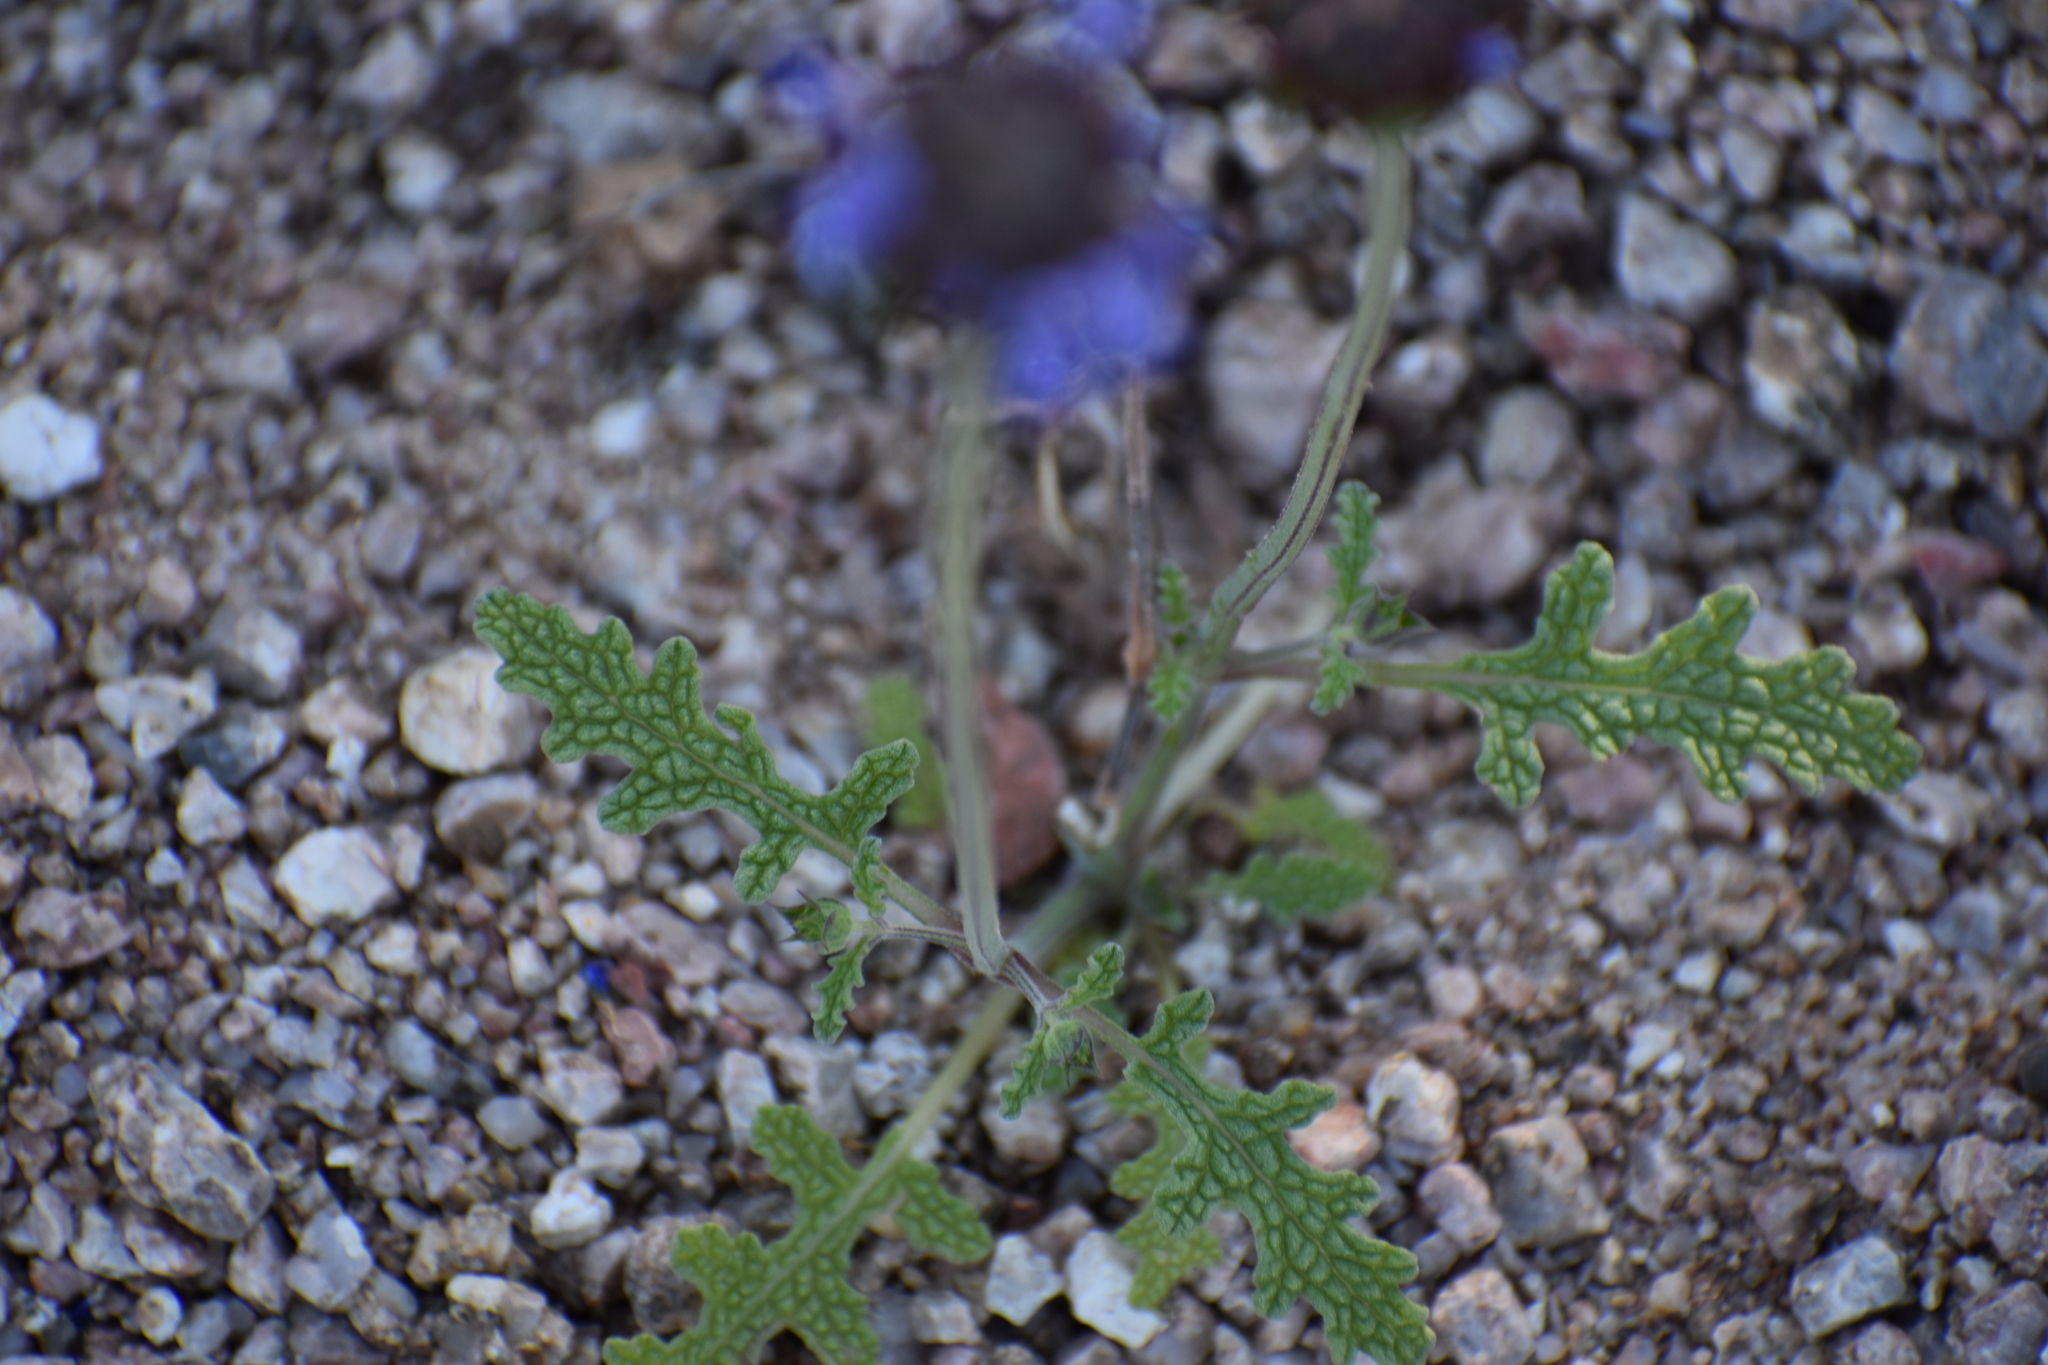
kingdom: Plantae
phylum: Tracheophyta
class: Magnoliopsida
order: Lamiales
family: Lamiaceae
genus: Salvia
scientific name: Salvia columbariae
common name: Chia
